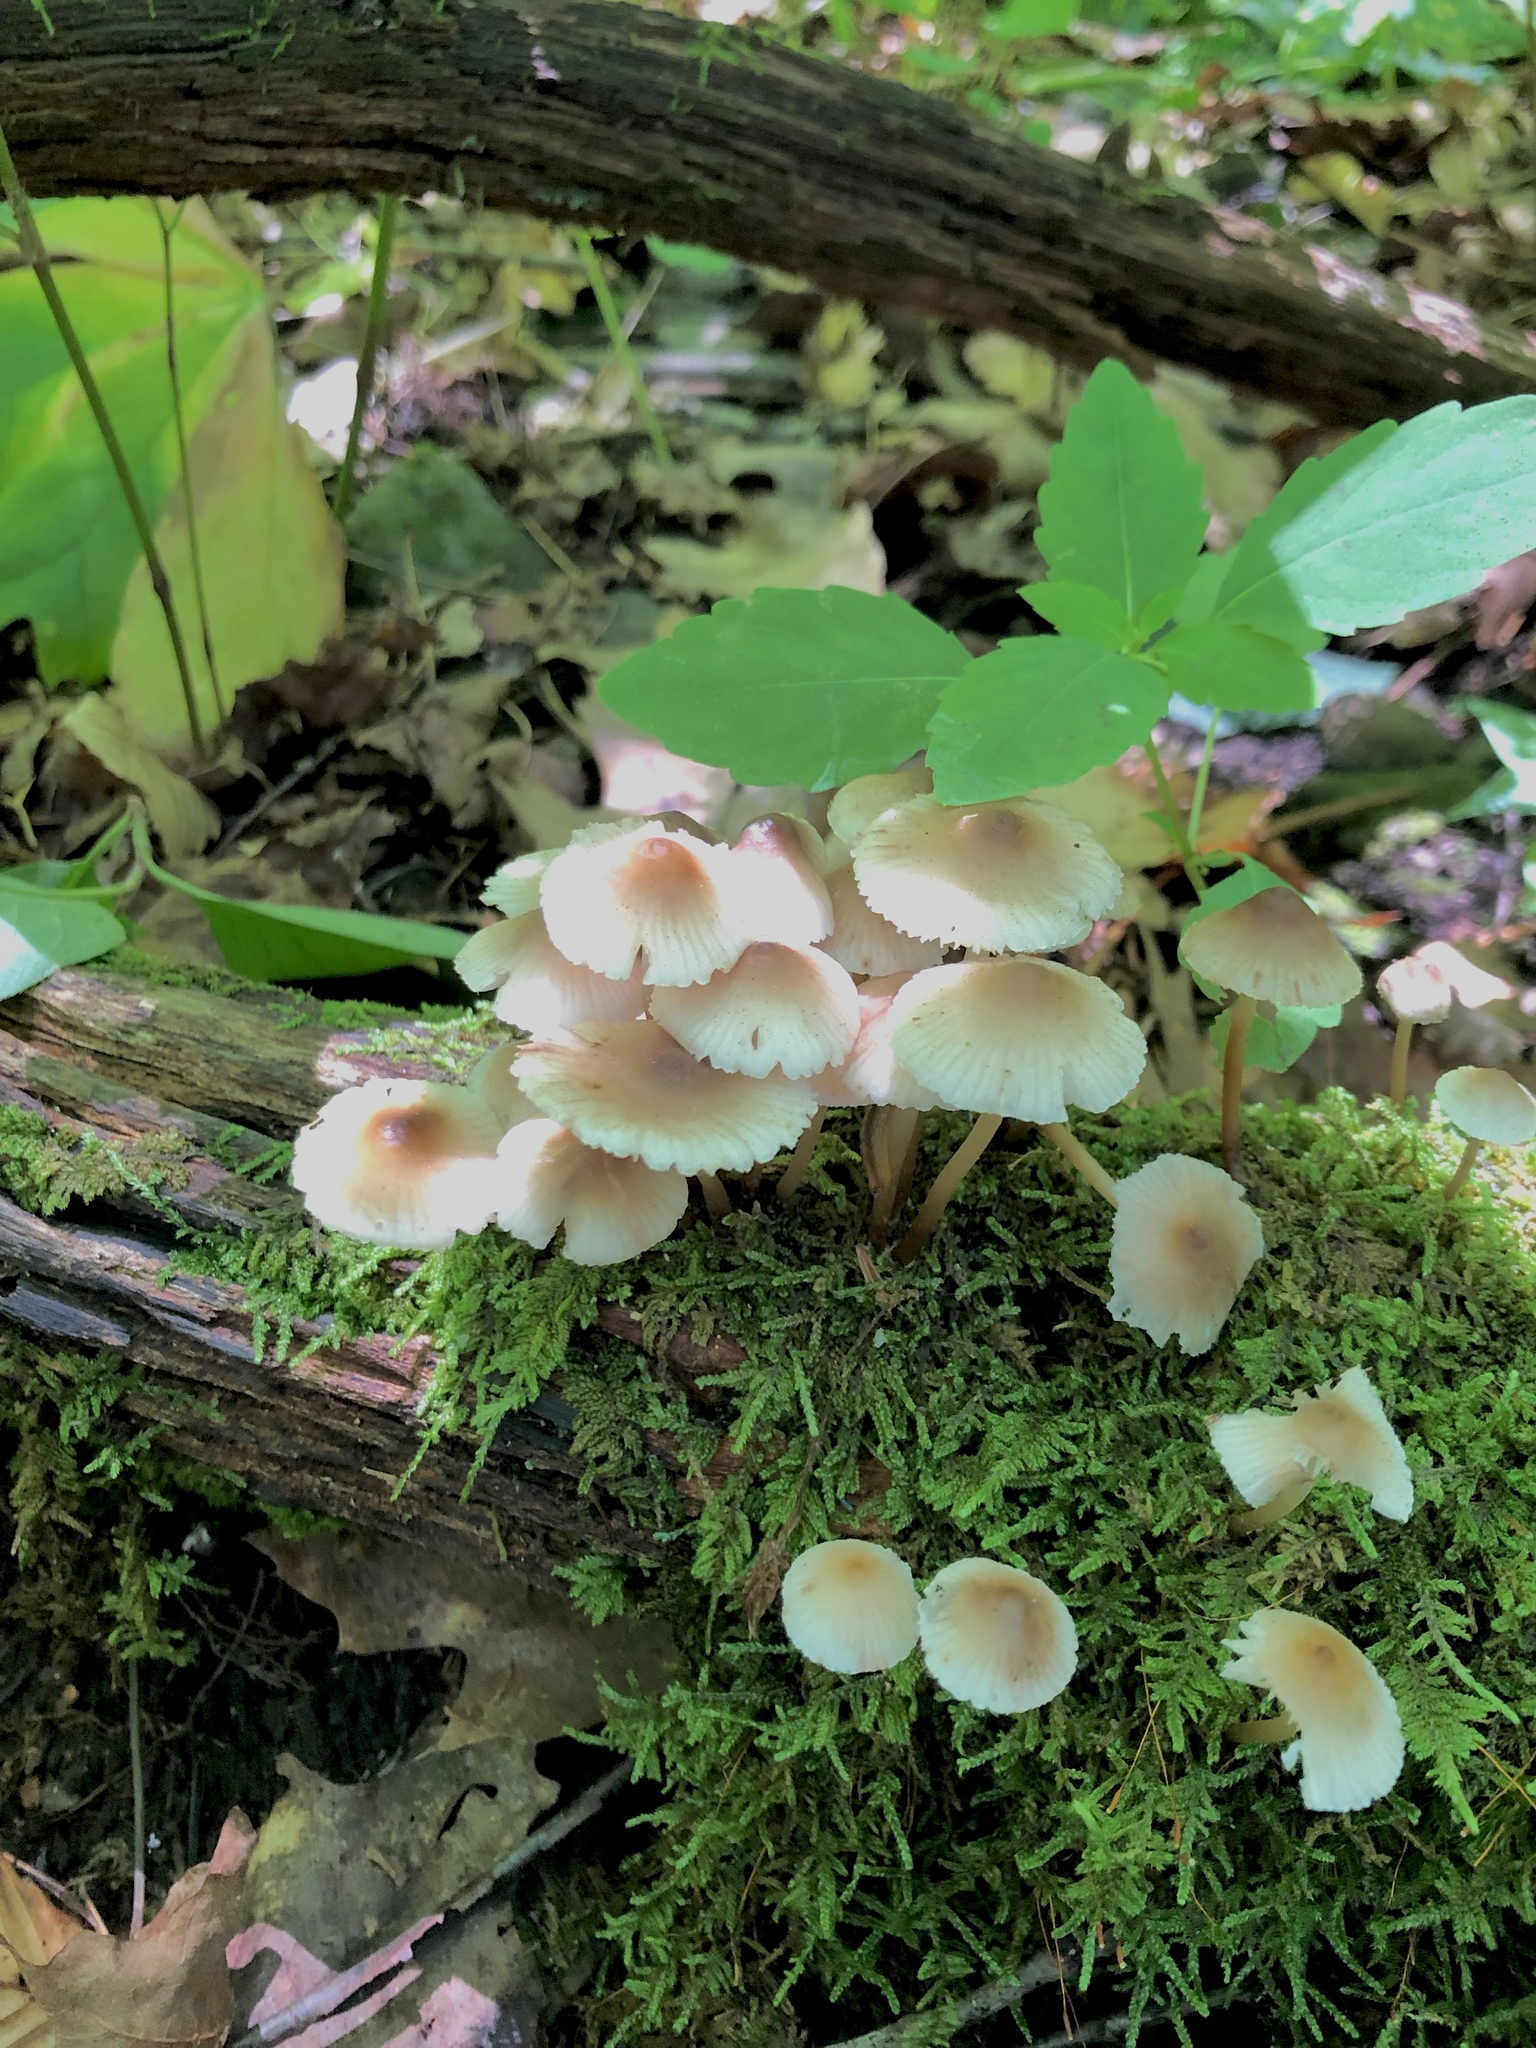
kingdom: Fungi
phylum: Basidiomycota
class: Agaricomycetes
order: Agaricales
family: Mycenaceae
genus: Mycena
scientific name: Mycena galericulata
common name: Bonnet mycena
